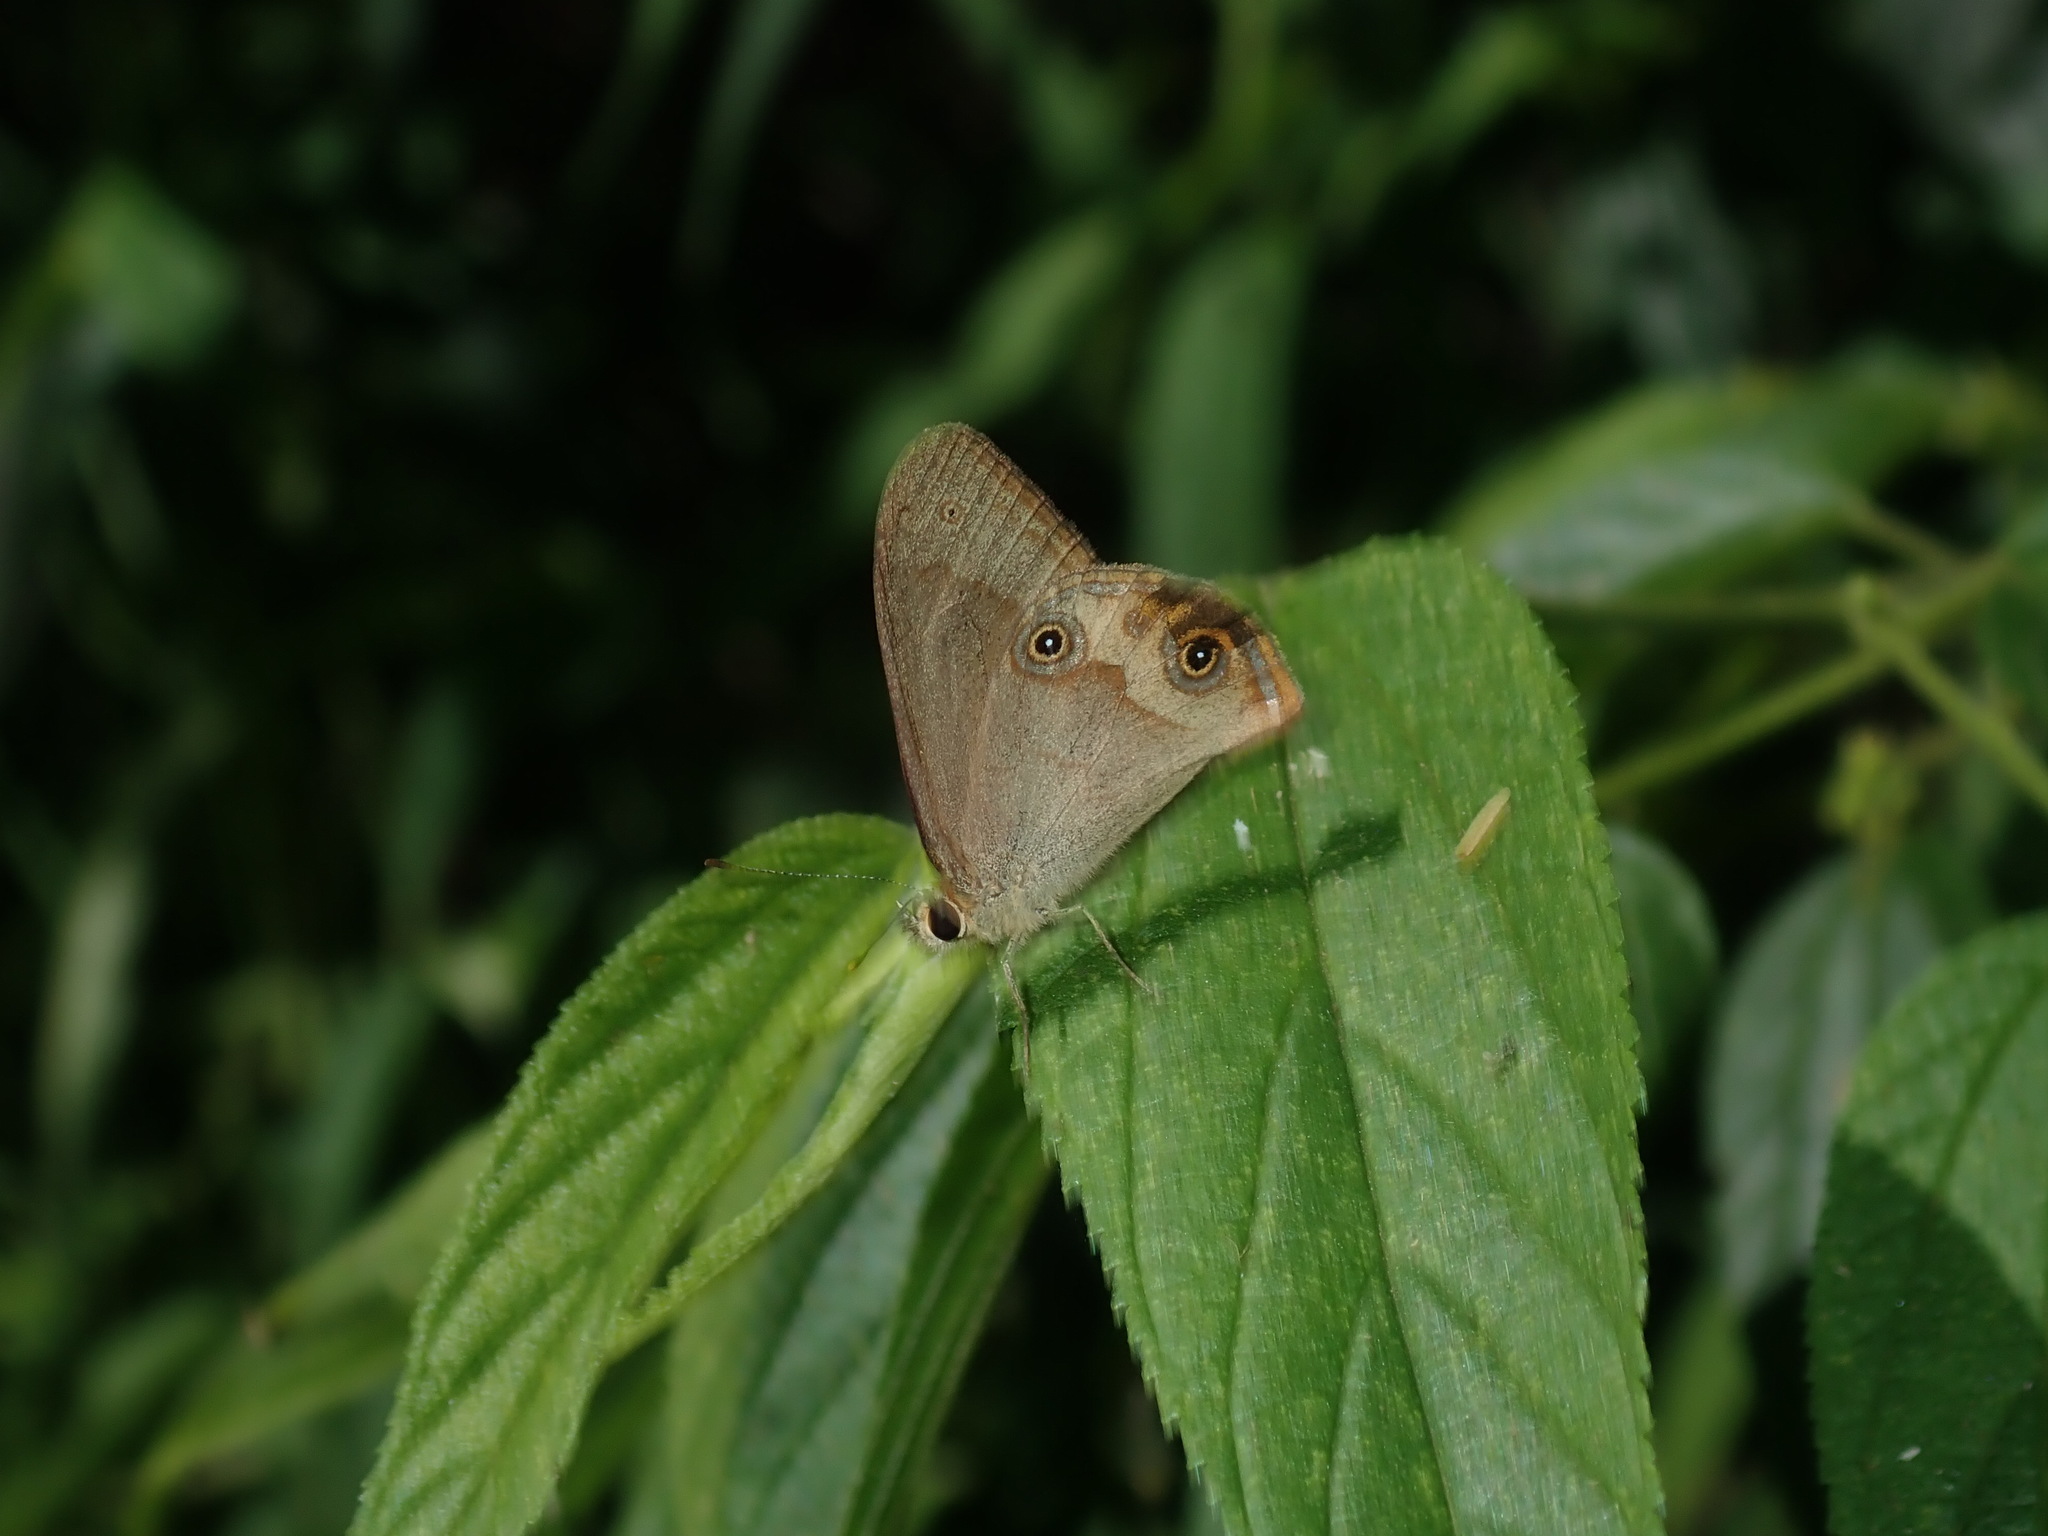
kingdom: Animalia
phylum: Arthropoda
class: Insecta
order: Lepidoptera
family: Nymphalidae
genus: Hypocysta
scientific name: Hypocysta metirius
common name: Brown ringlet
